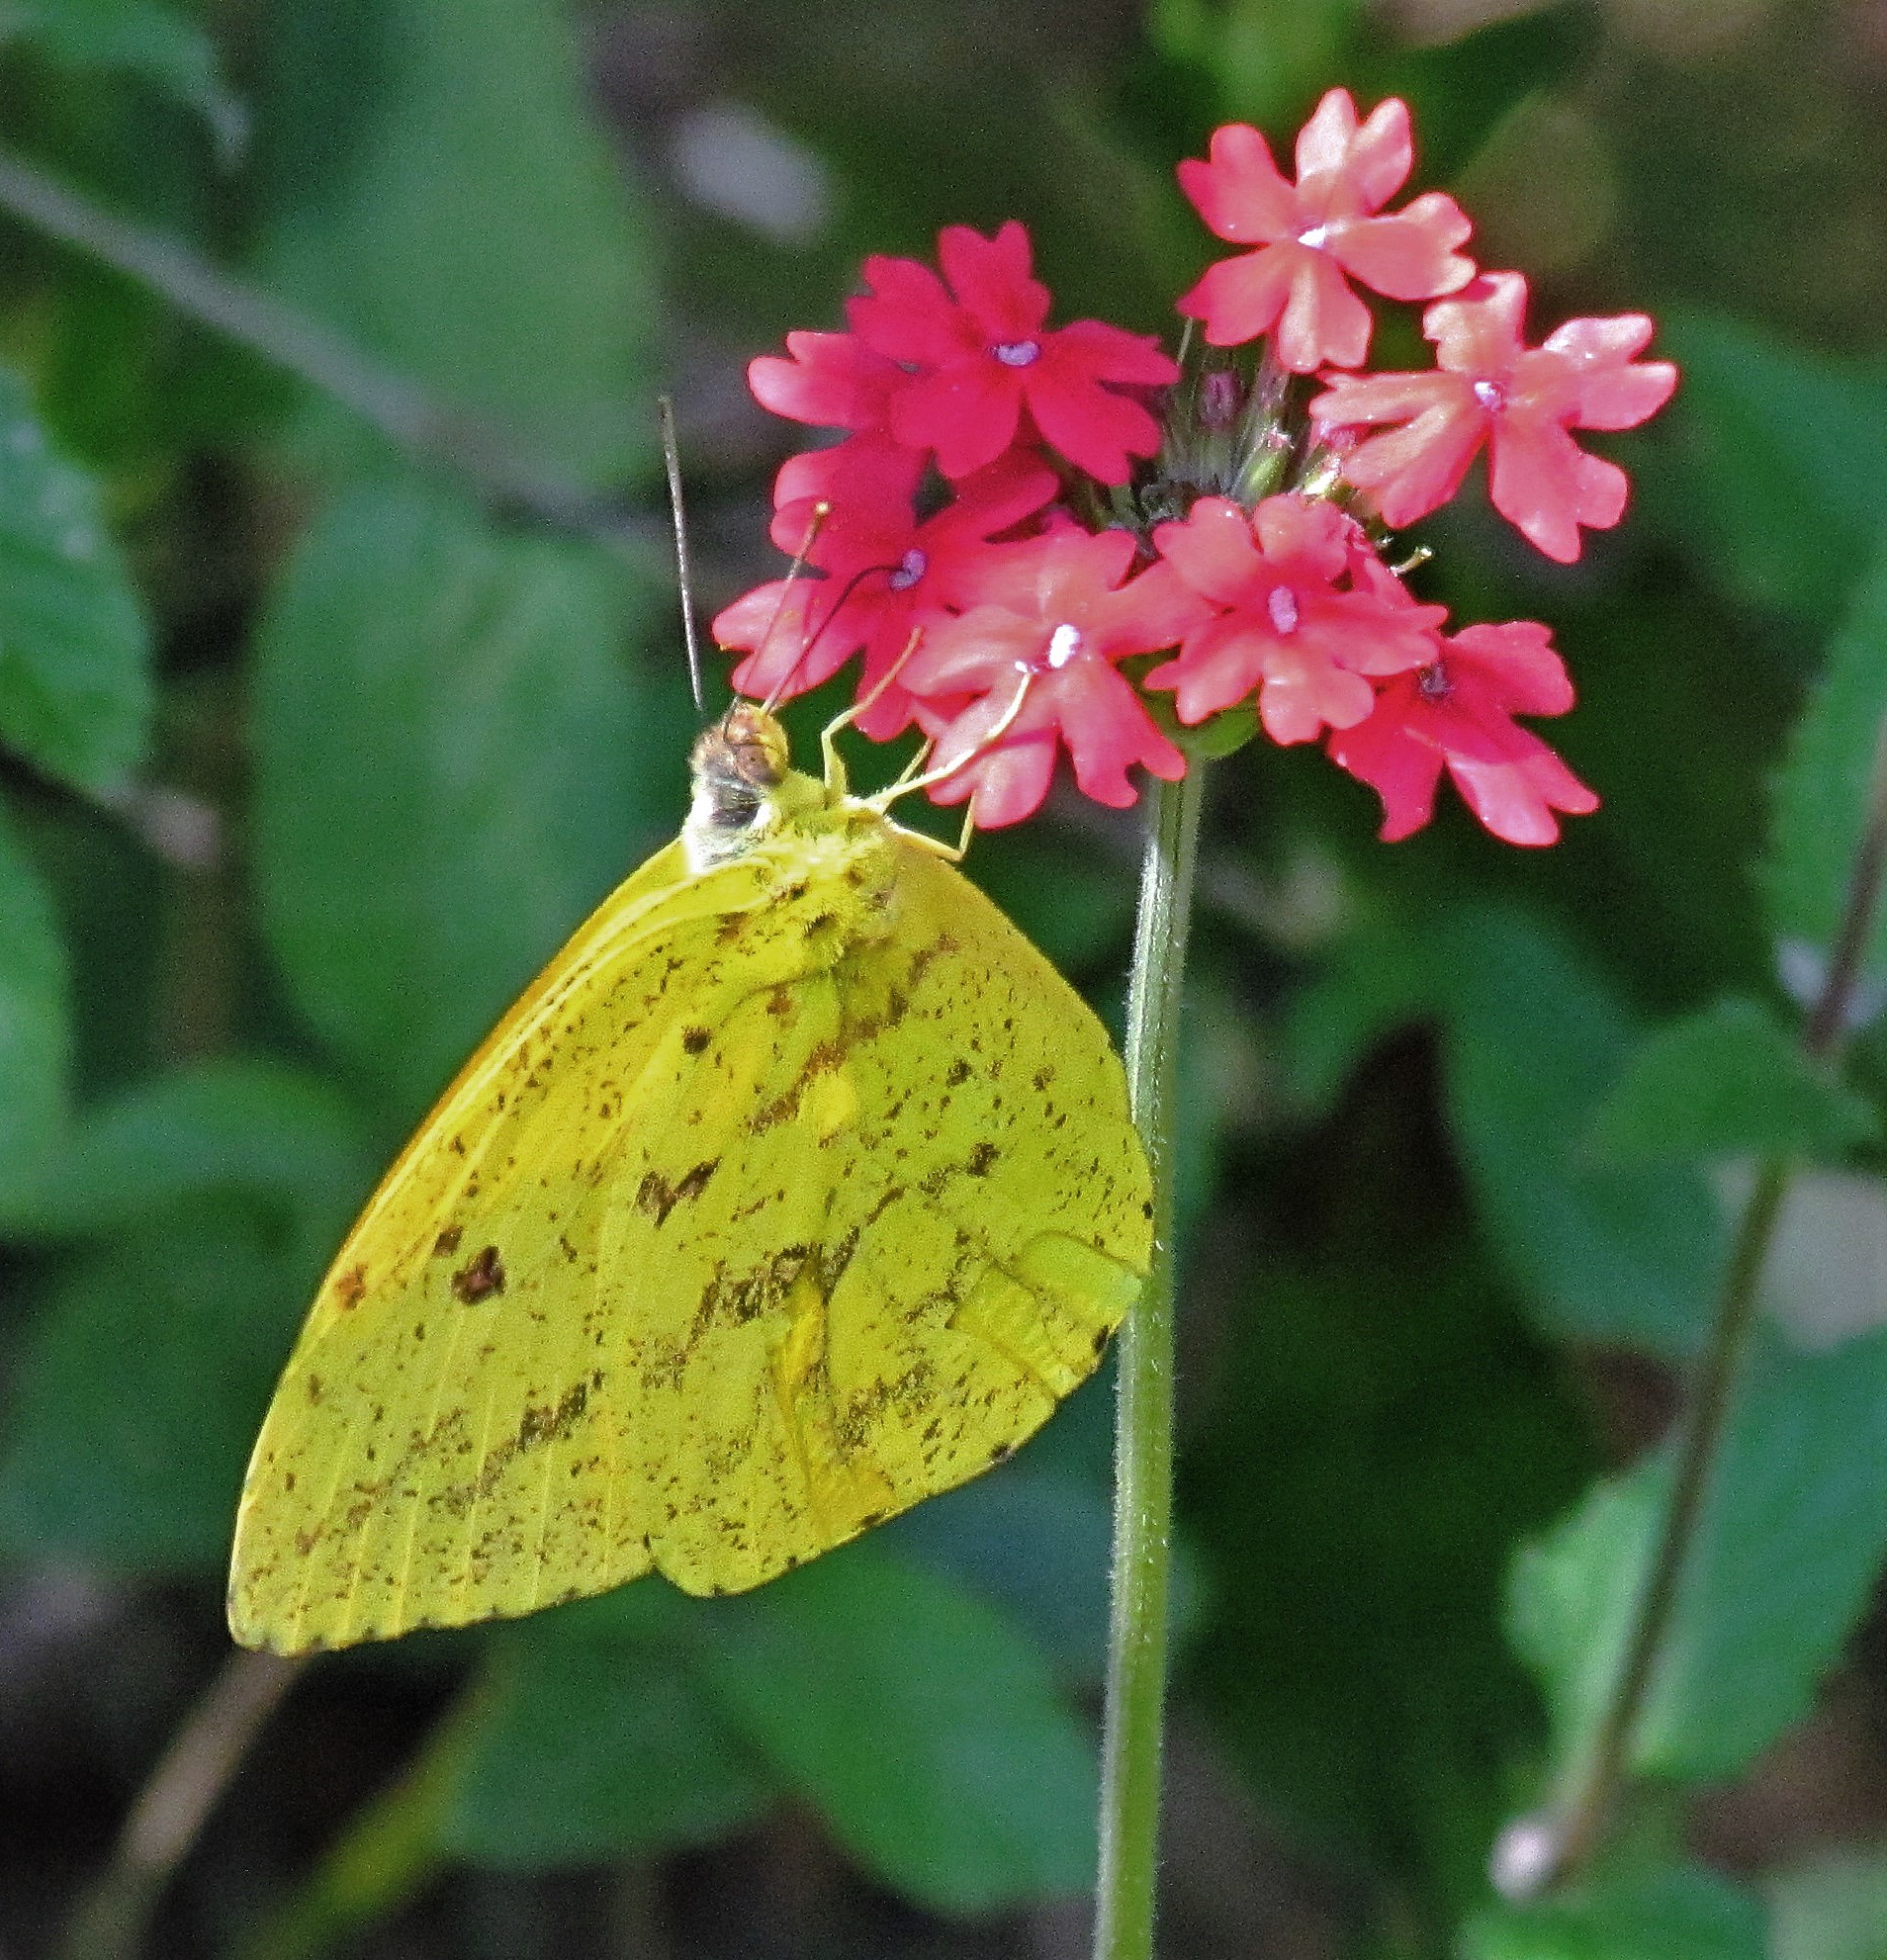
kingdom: Animalia
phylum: Arthropoda
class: Insecta
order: Lepidoptera
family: Pieridae
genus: Phoebis
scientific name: Phoebis argante
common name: Apricot sulphur
